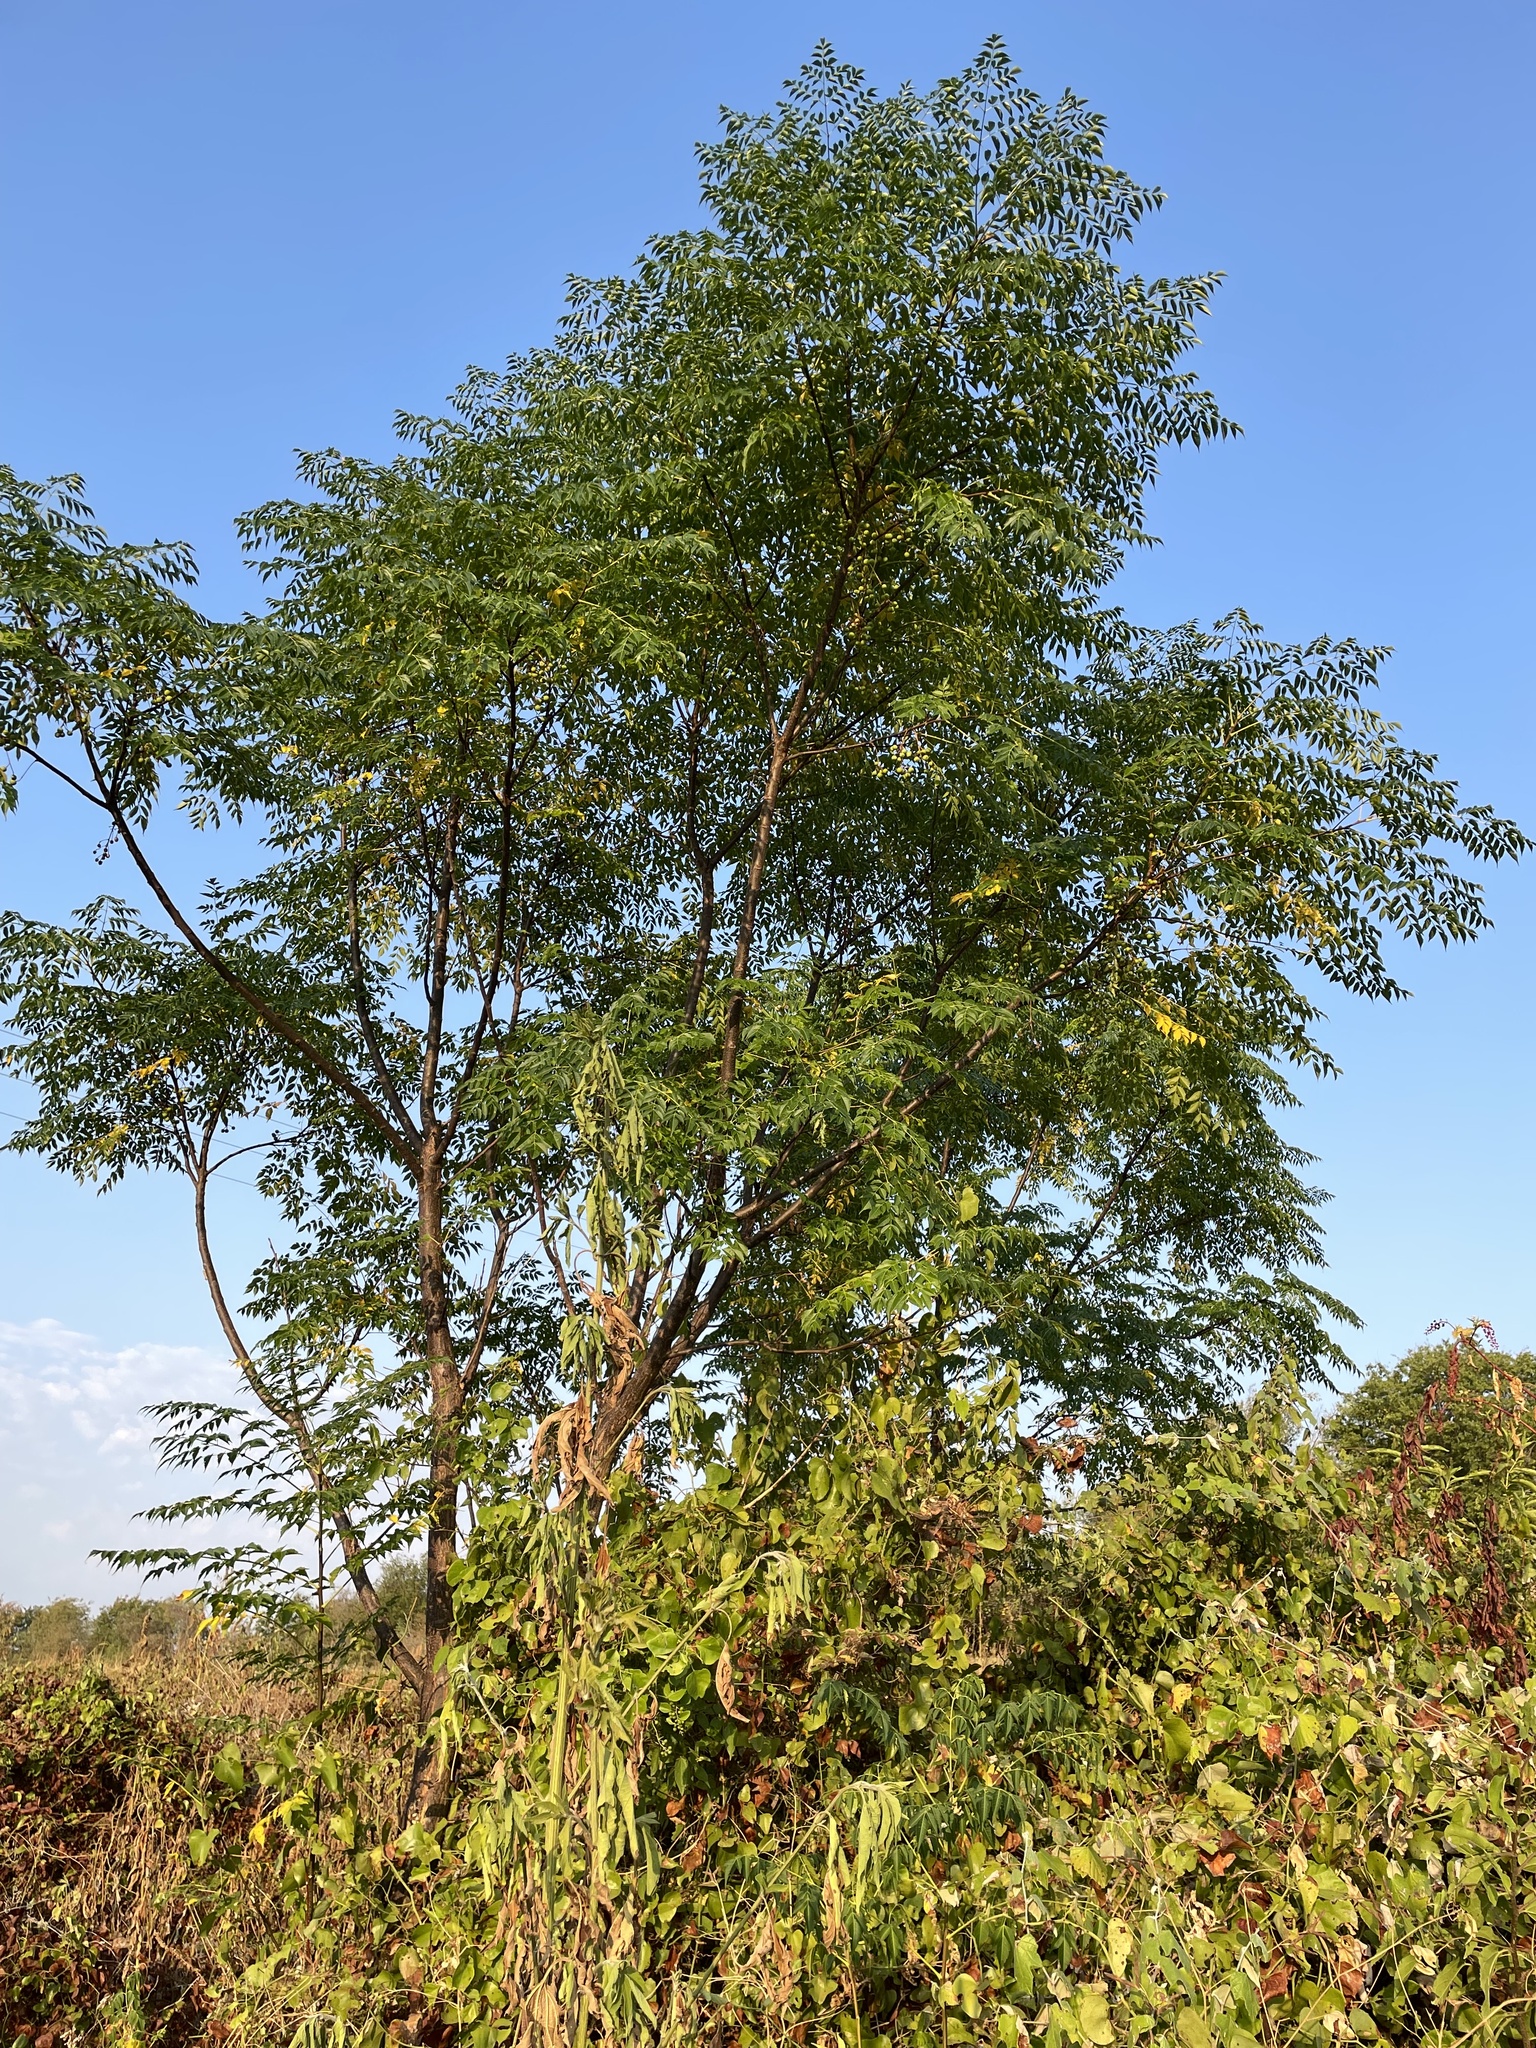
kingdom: Plantae
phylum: Tracheophyta
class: Magnoliopsida
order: Sapindales
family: Meliaceae
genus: Melia
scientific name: Melia azedarach
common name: Chinaberrytree
